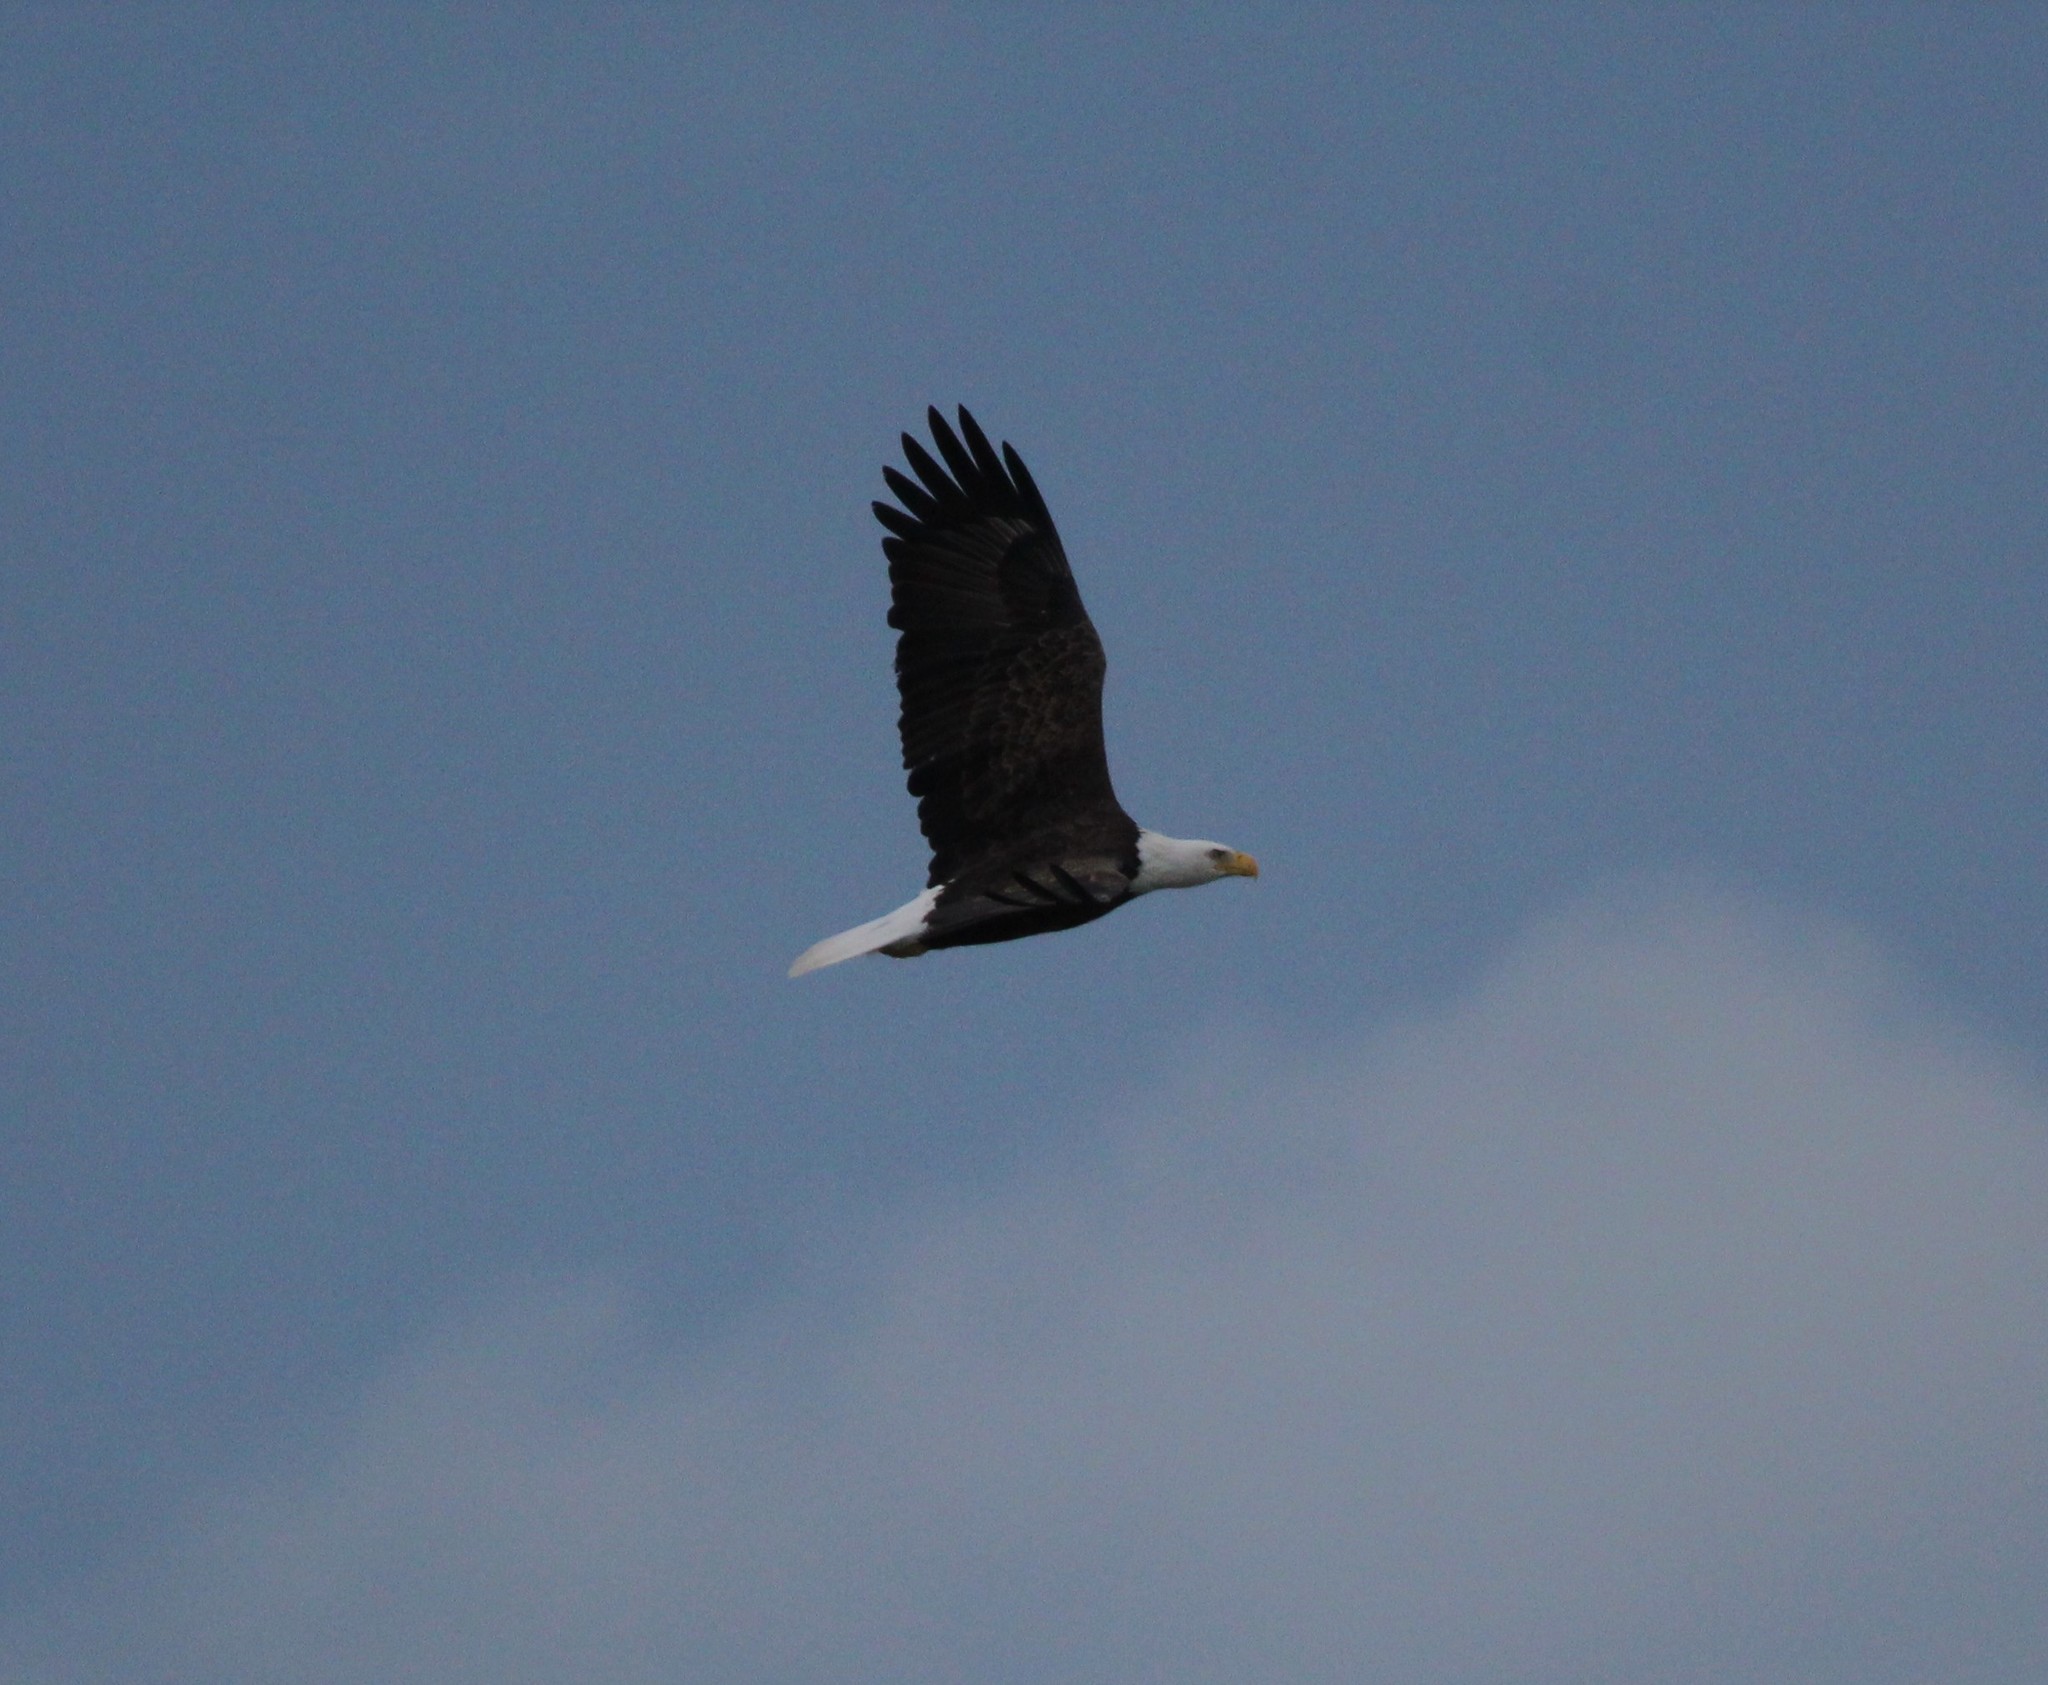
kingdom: Animalia
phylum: Chordata
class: Aves
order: Accipitriformes
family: Accipitridae
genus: Haliaeetus
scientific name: Haliaeetus leucocephalus
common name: Bald eagle
